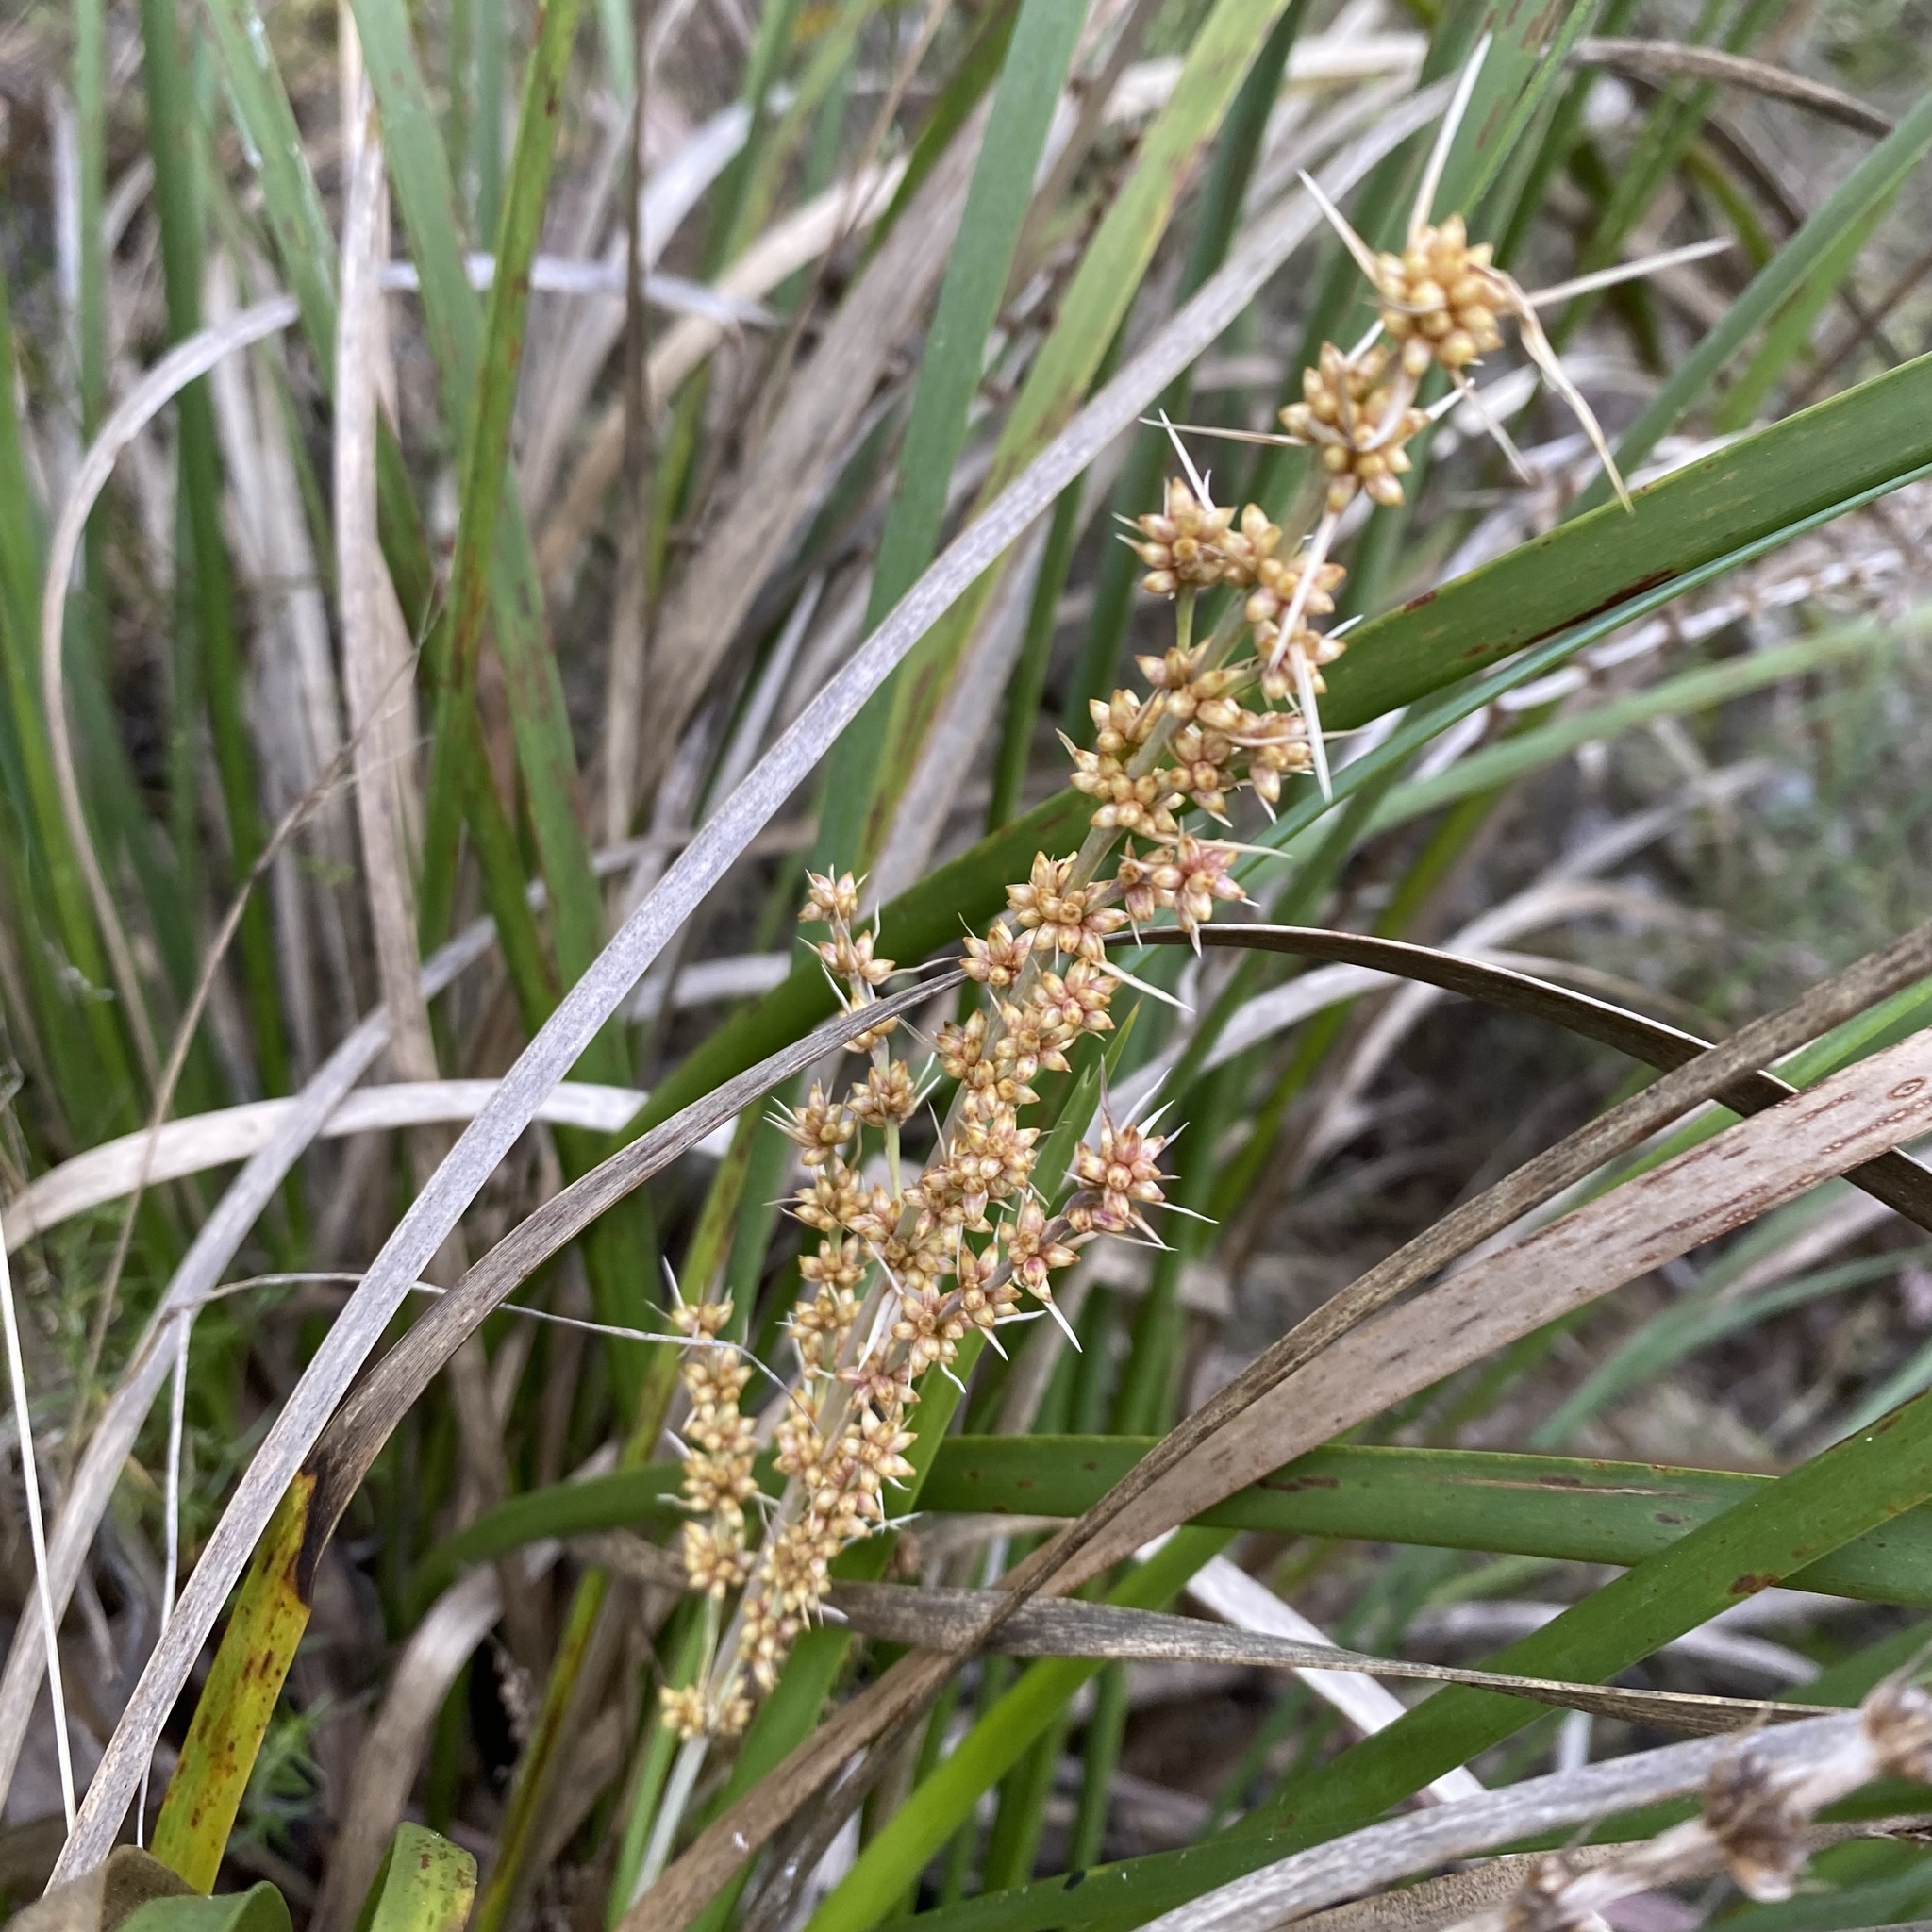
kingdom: Plantae
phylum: Tracheophyta
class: Liliopsida
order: Asparagales
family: Asparagaceae
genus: Lomandra
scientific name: Lomandra longifolia
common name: Longleaf mat-rush
